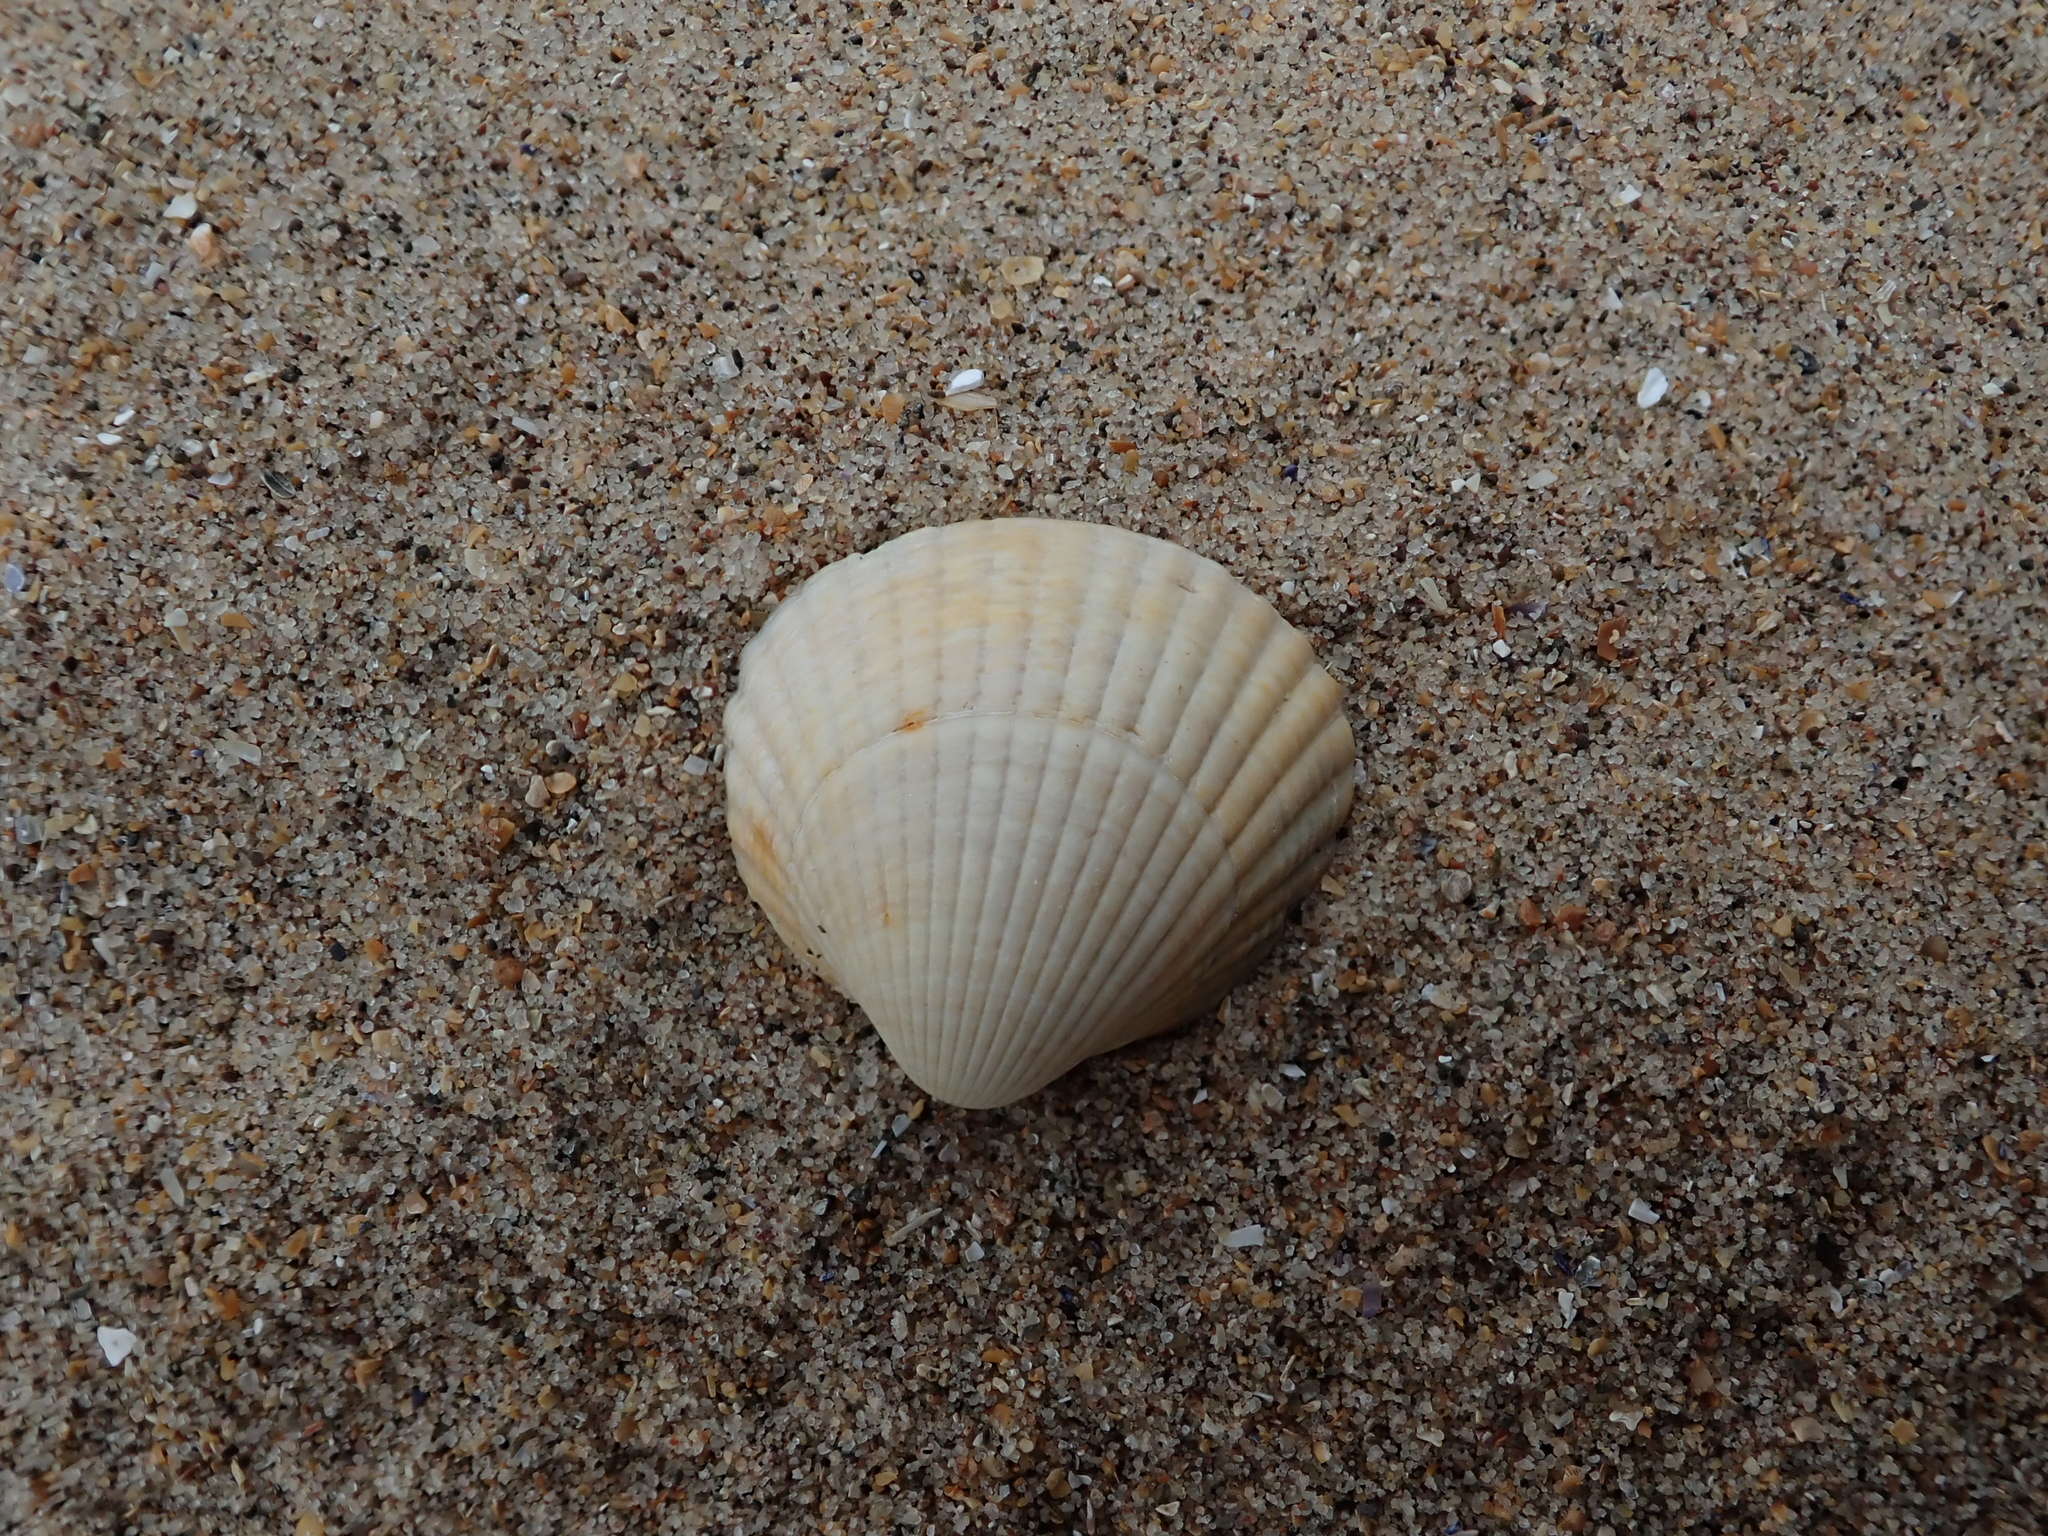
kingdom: Animalia
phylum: Mollusca
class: Bivalvia
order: Cardiida
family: Cardiidae
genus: Cerastoderma
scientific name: Cerastoderma edule
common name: Common cockle
